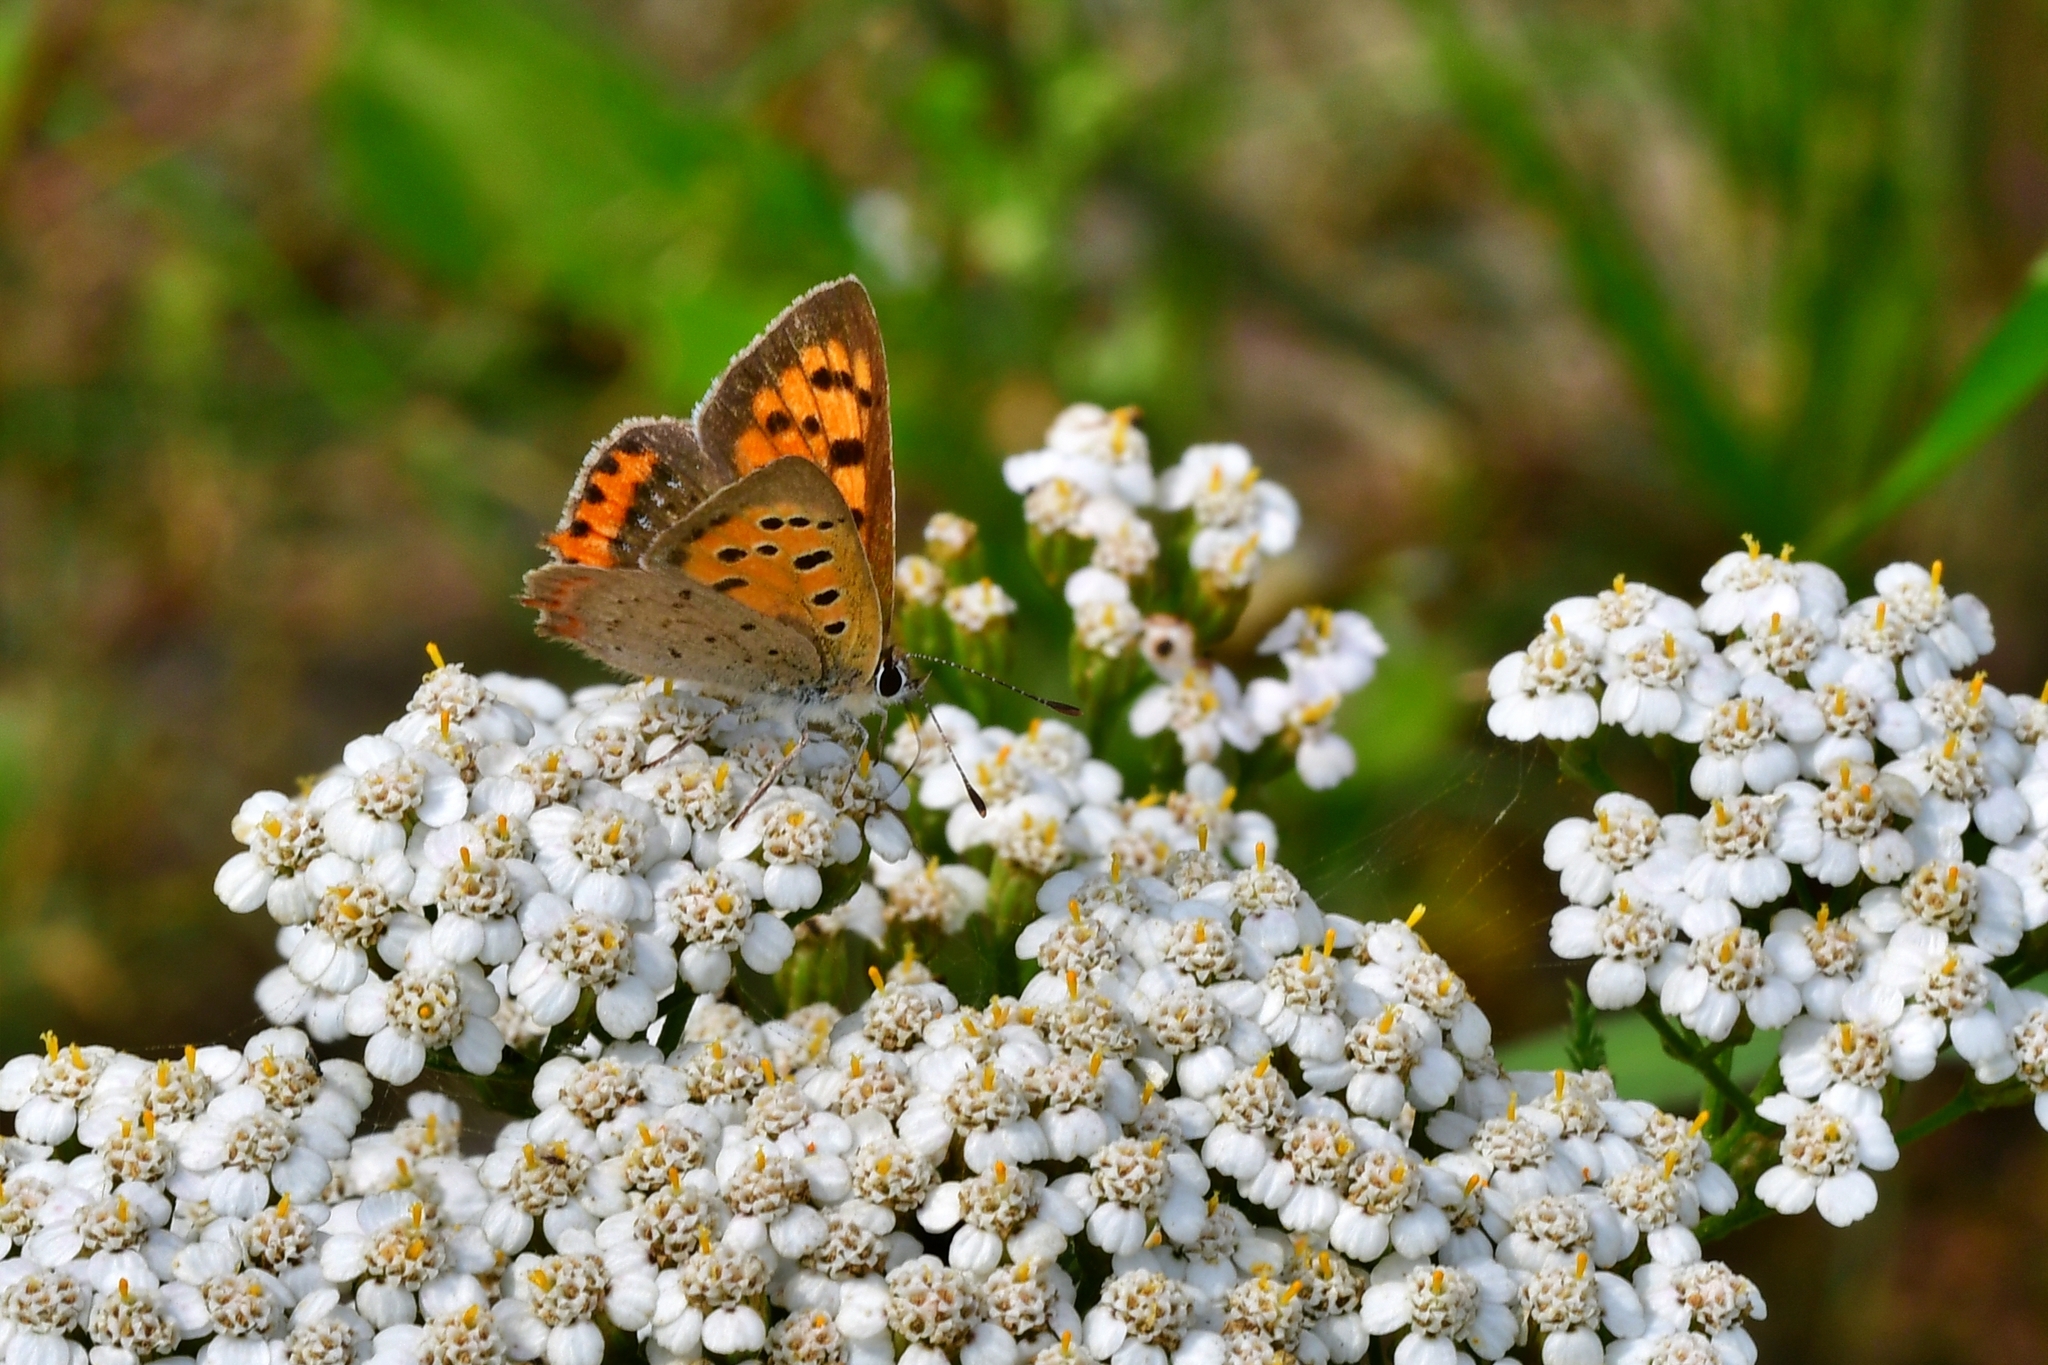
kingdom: Animalia
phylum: Arthropoda
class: Insecta
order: Lepidoptera
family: Lycaenidae
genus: Lycaena
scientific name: Lycaena phlaeas
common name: Small copper
